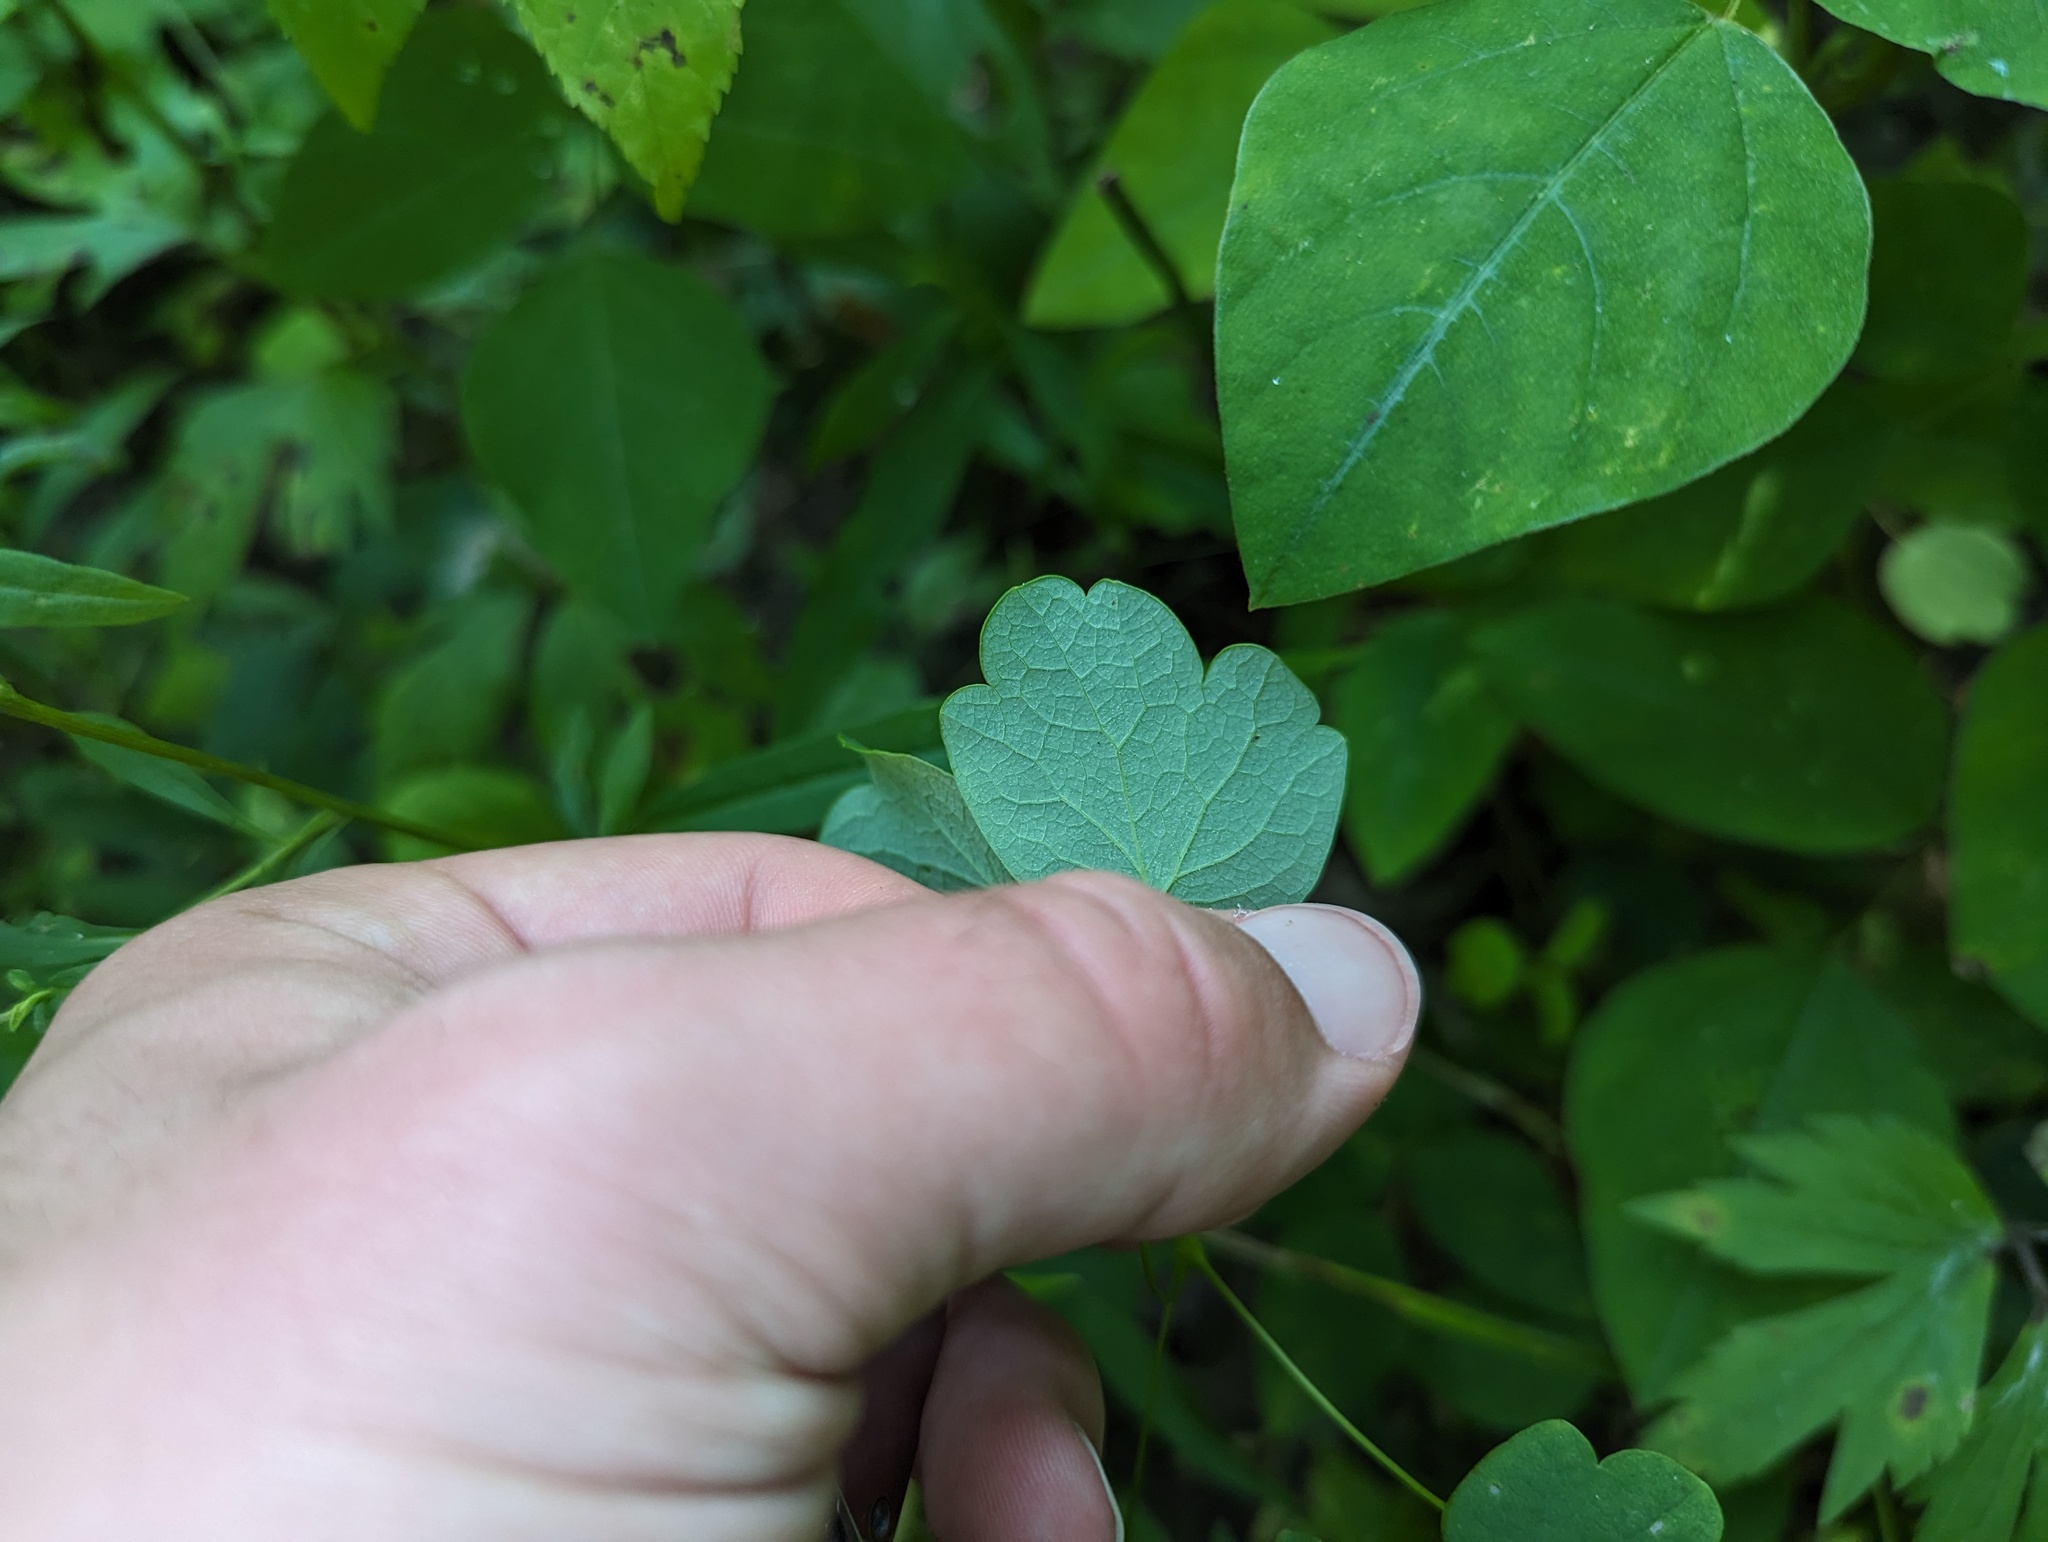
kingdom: Plantae
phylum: Tracheophyta
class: Magnoliopsida
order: Ranunculales
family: Ranunculaceae
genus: Thalictrum
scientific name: Thalictrum dasycarpum
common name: Purple meadow-rue
